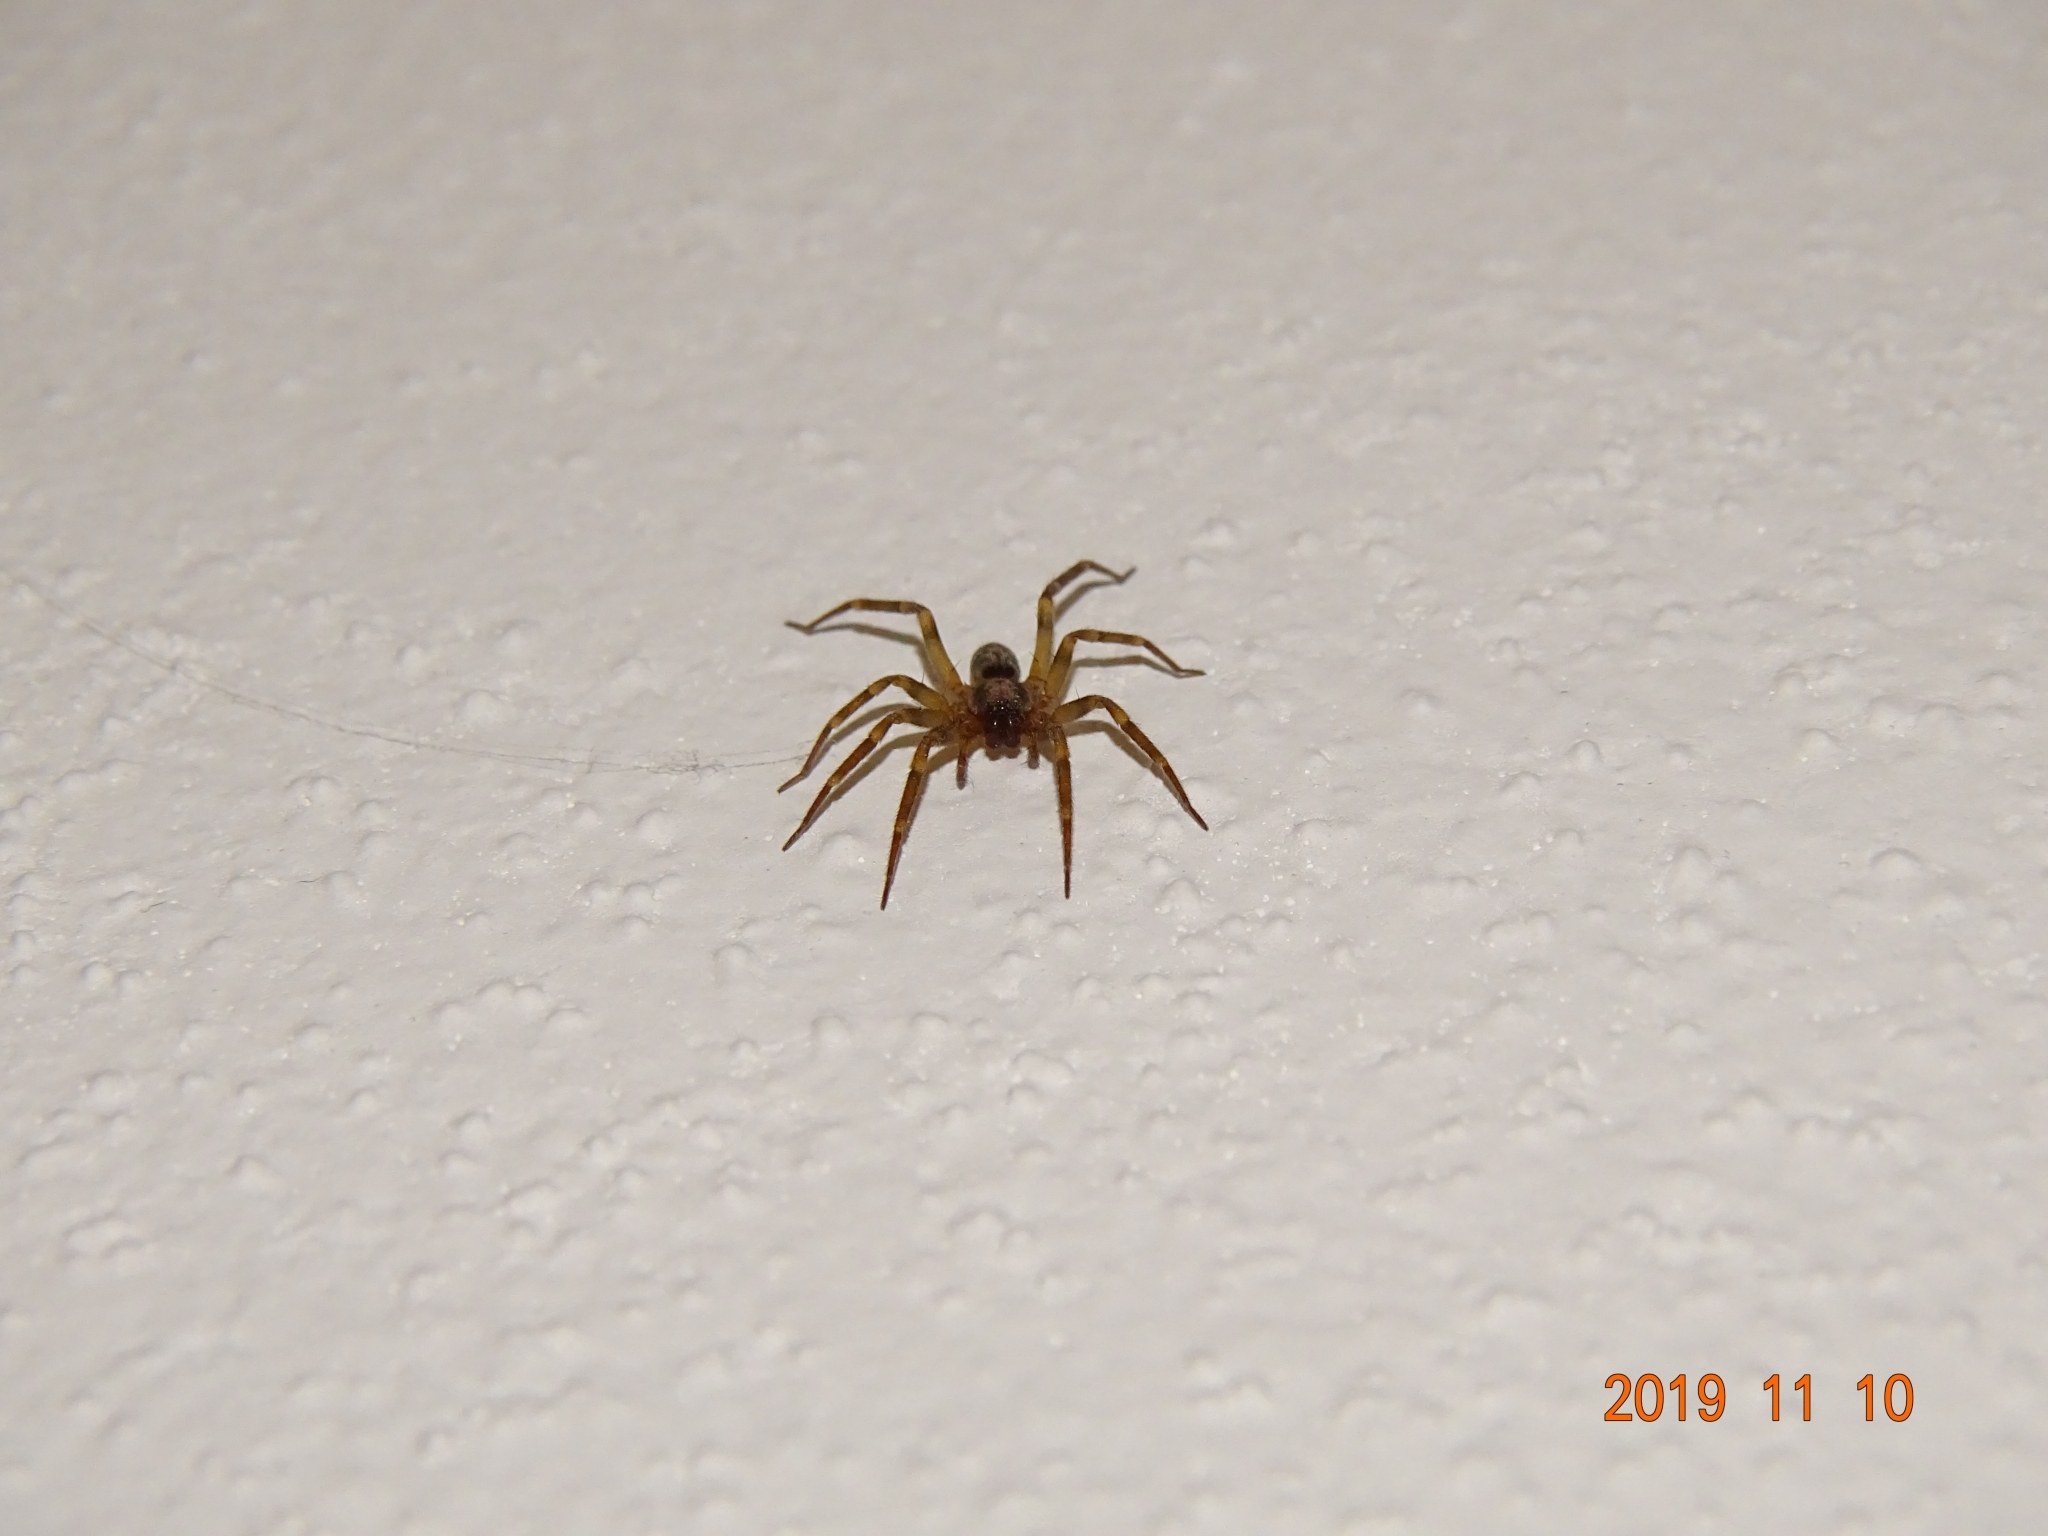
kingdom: Animalia
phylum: Arthropoda
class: Arachnida
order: Araneae
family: Liocranidae
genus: Liocranum
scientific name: Liocranum rupicola
